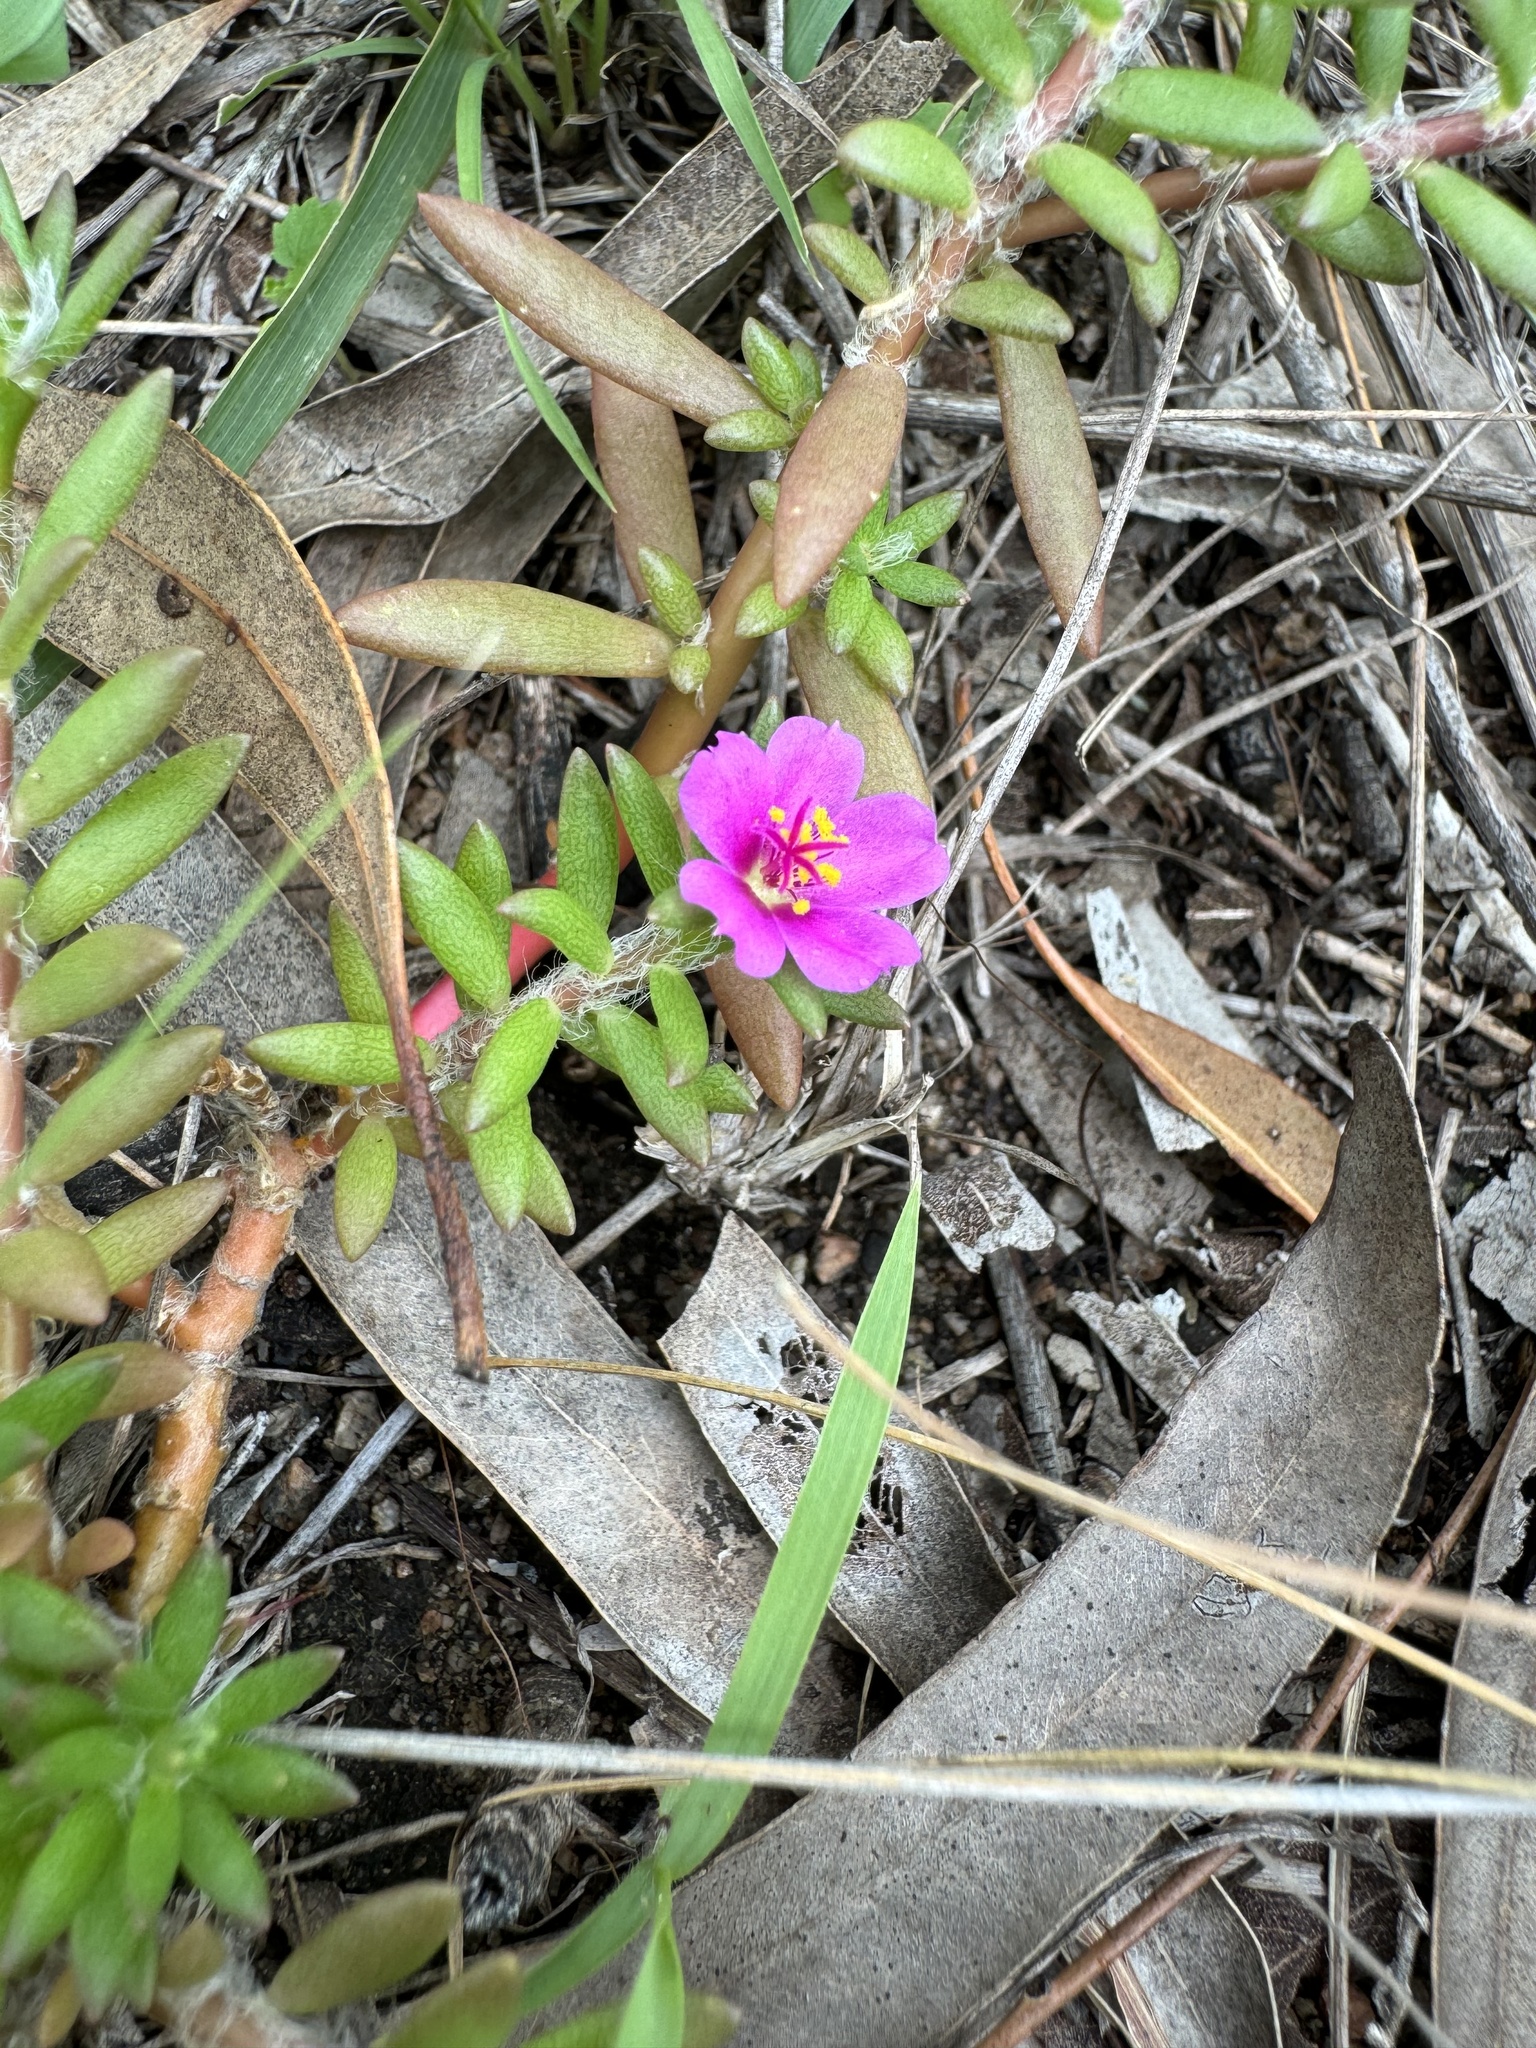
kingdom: Plantae
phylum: Tracheophyta
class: Magnoliopsida
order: Caryophyllales
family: Portulacaceae
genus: Portulaca
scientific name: Portulaca pilosa
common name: Kiss me quick
